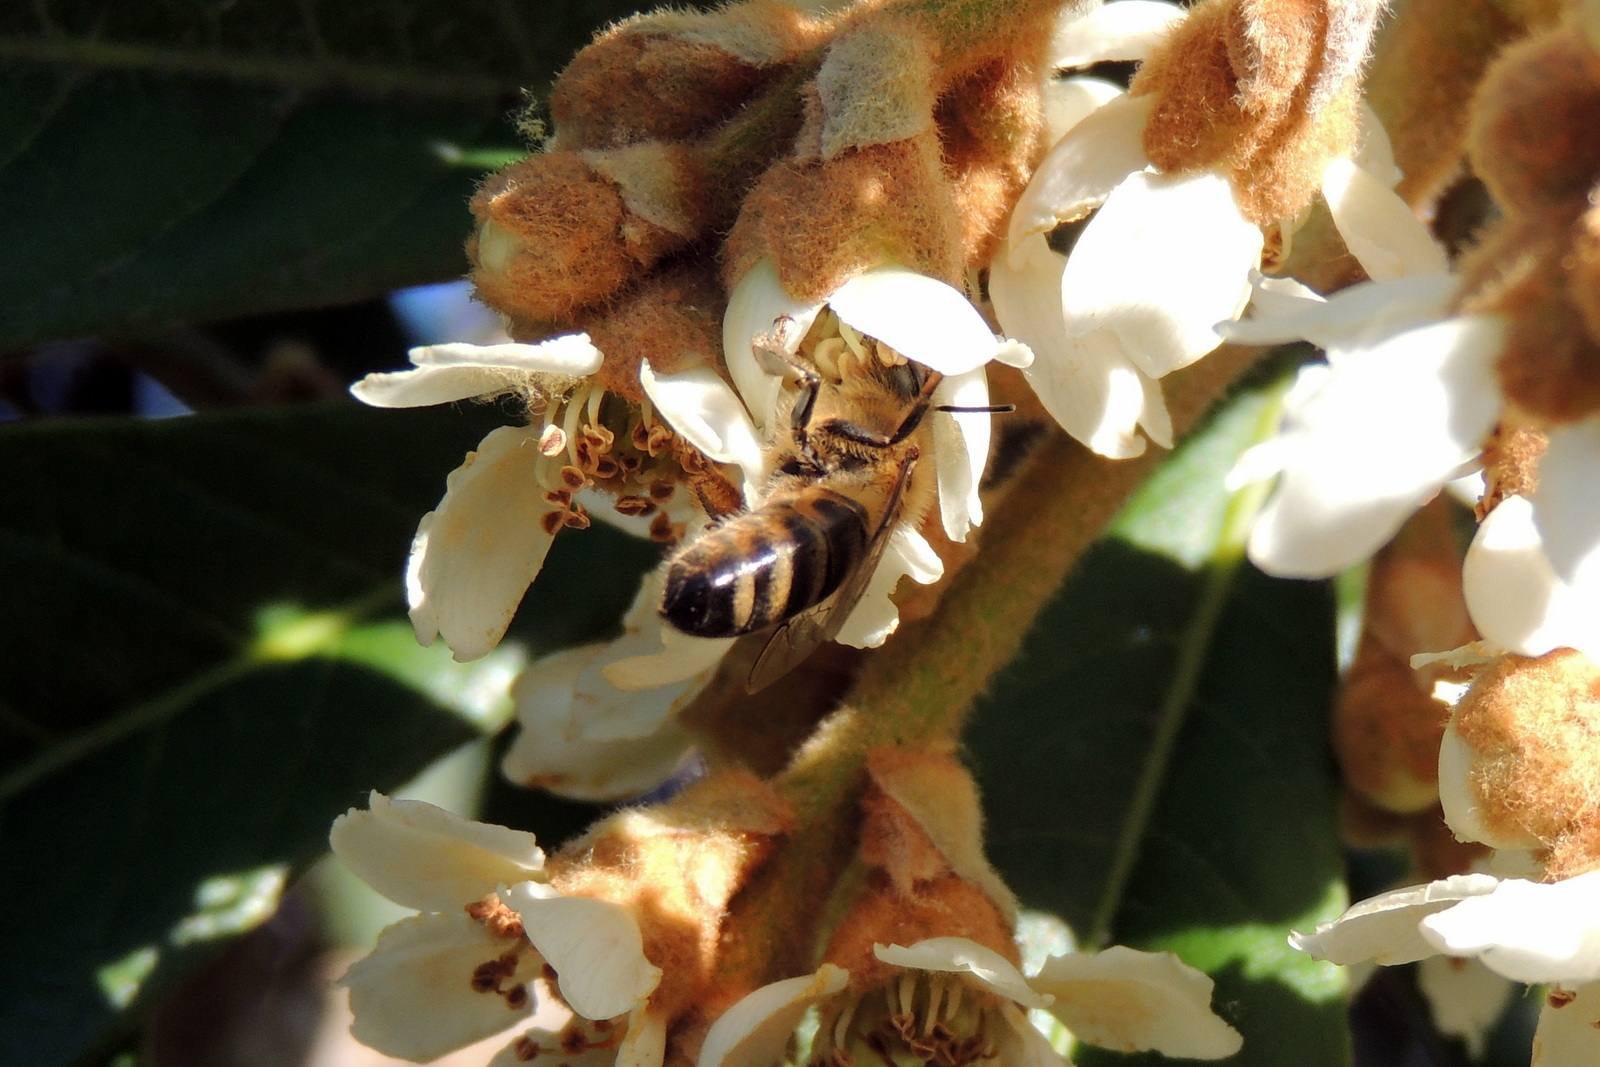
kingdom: Animalia
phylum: Arthropoda
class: Insecta
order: Hymenoptera
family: Apidae
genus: Apis
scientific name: Apis mellifera
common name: Honey bee
